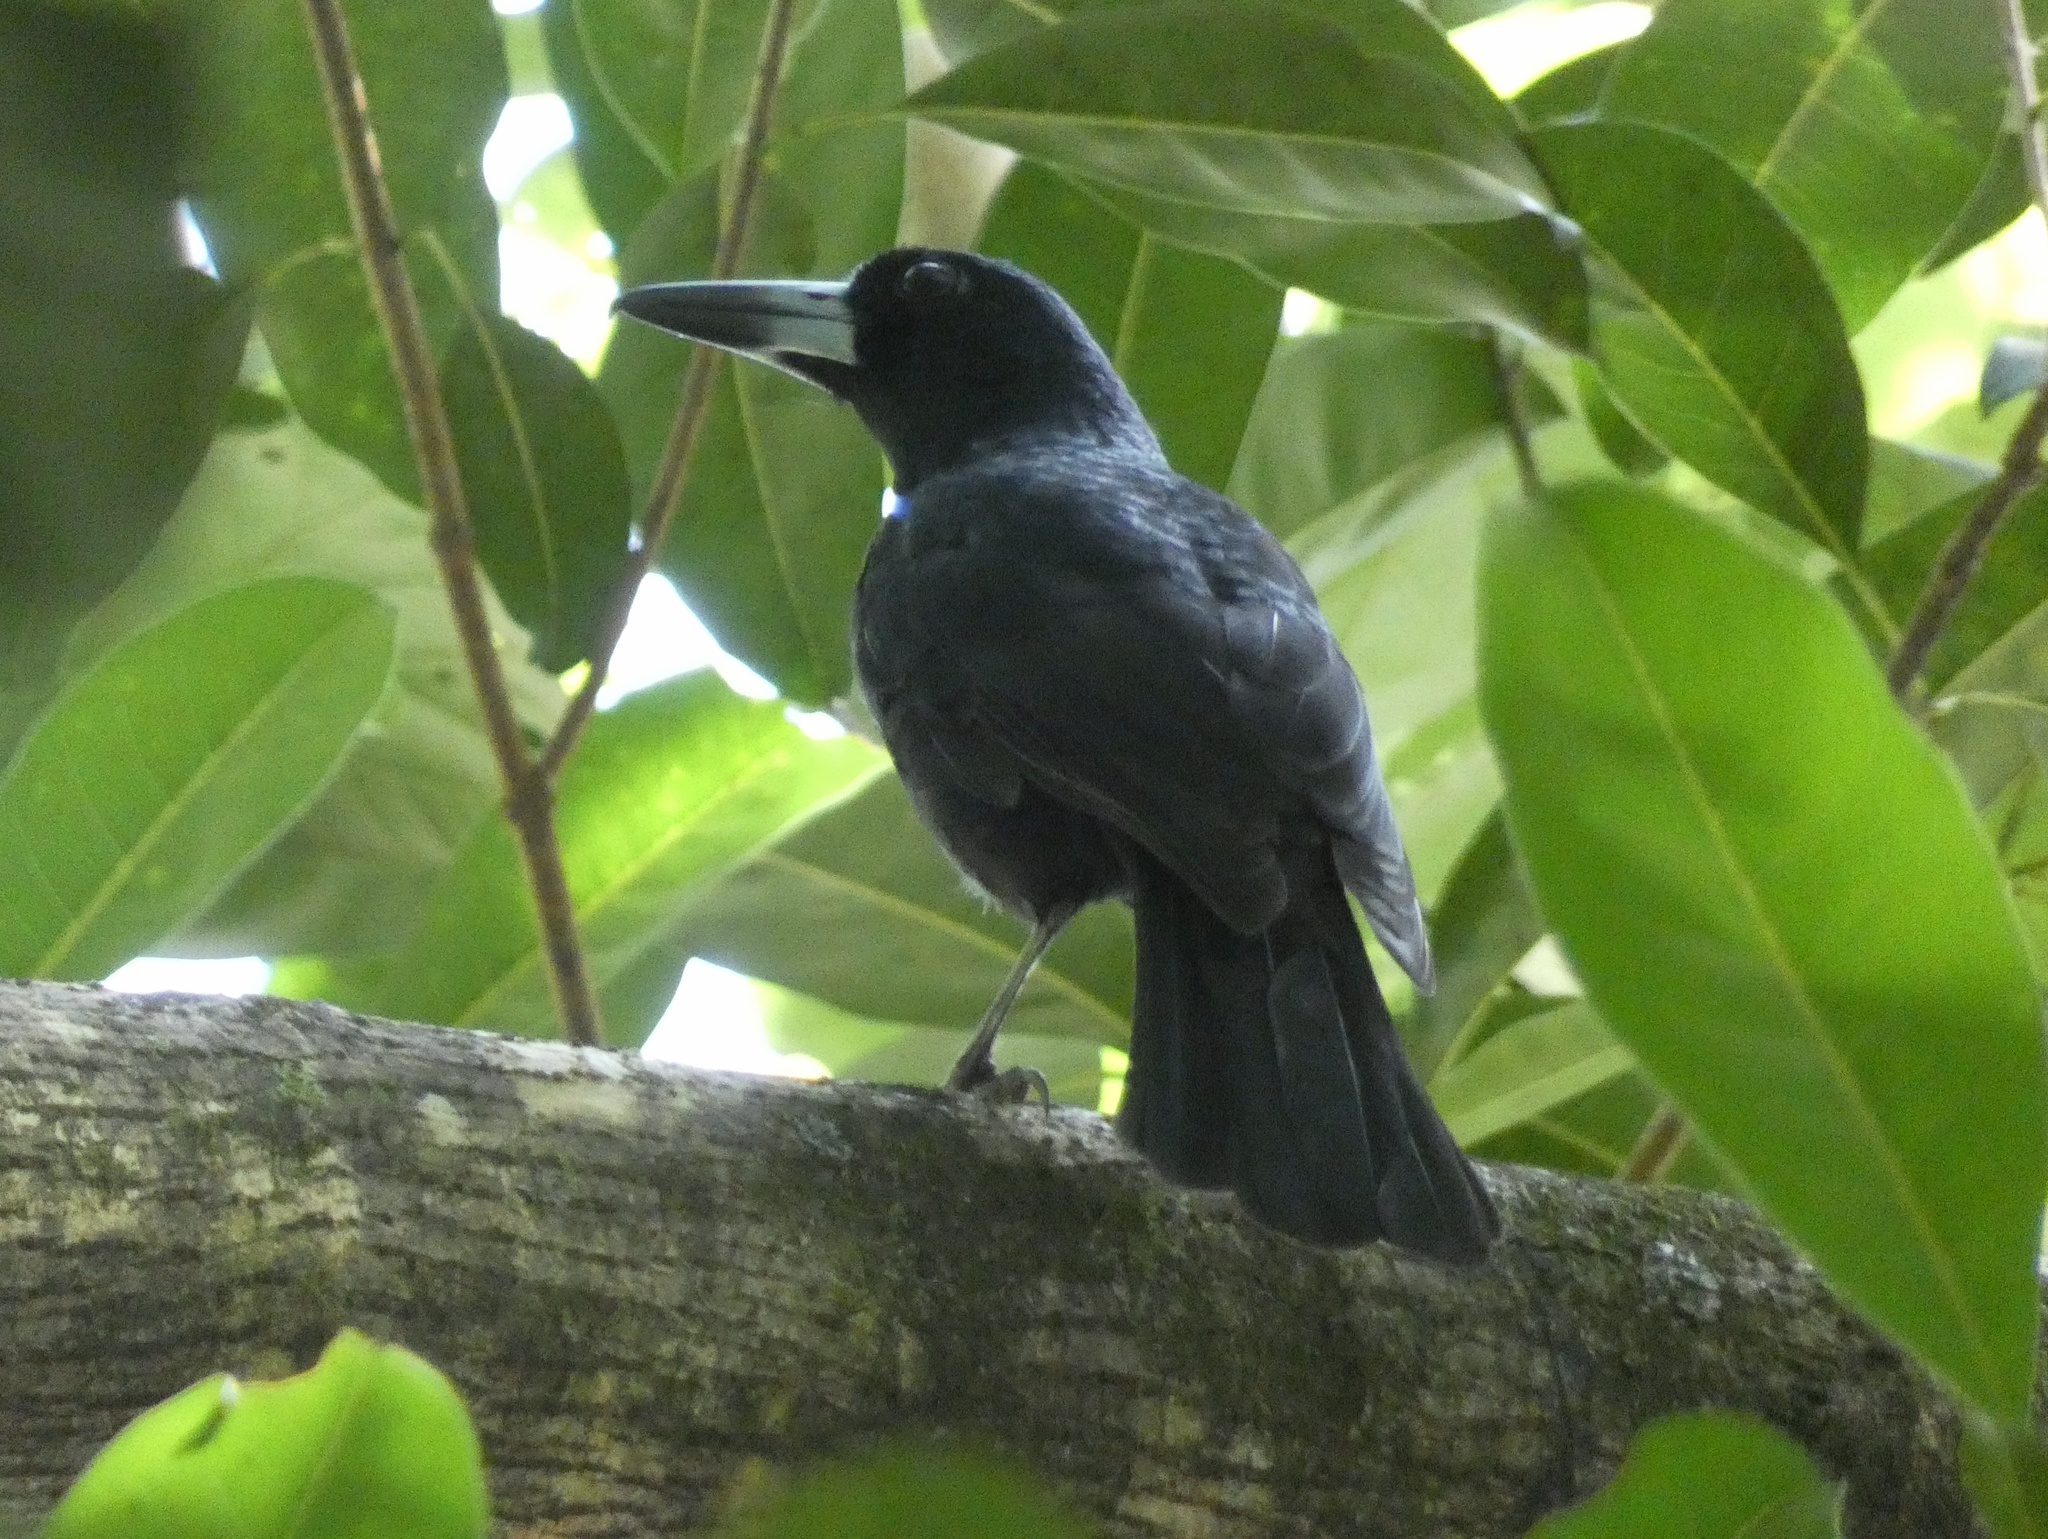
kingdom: Animalia
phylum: Chordata
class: Aves
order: Passeriformes
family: Artamidae
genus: Melloria
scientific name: Melloria quoyi
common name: Black butcherbird
